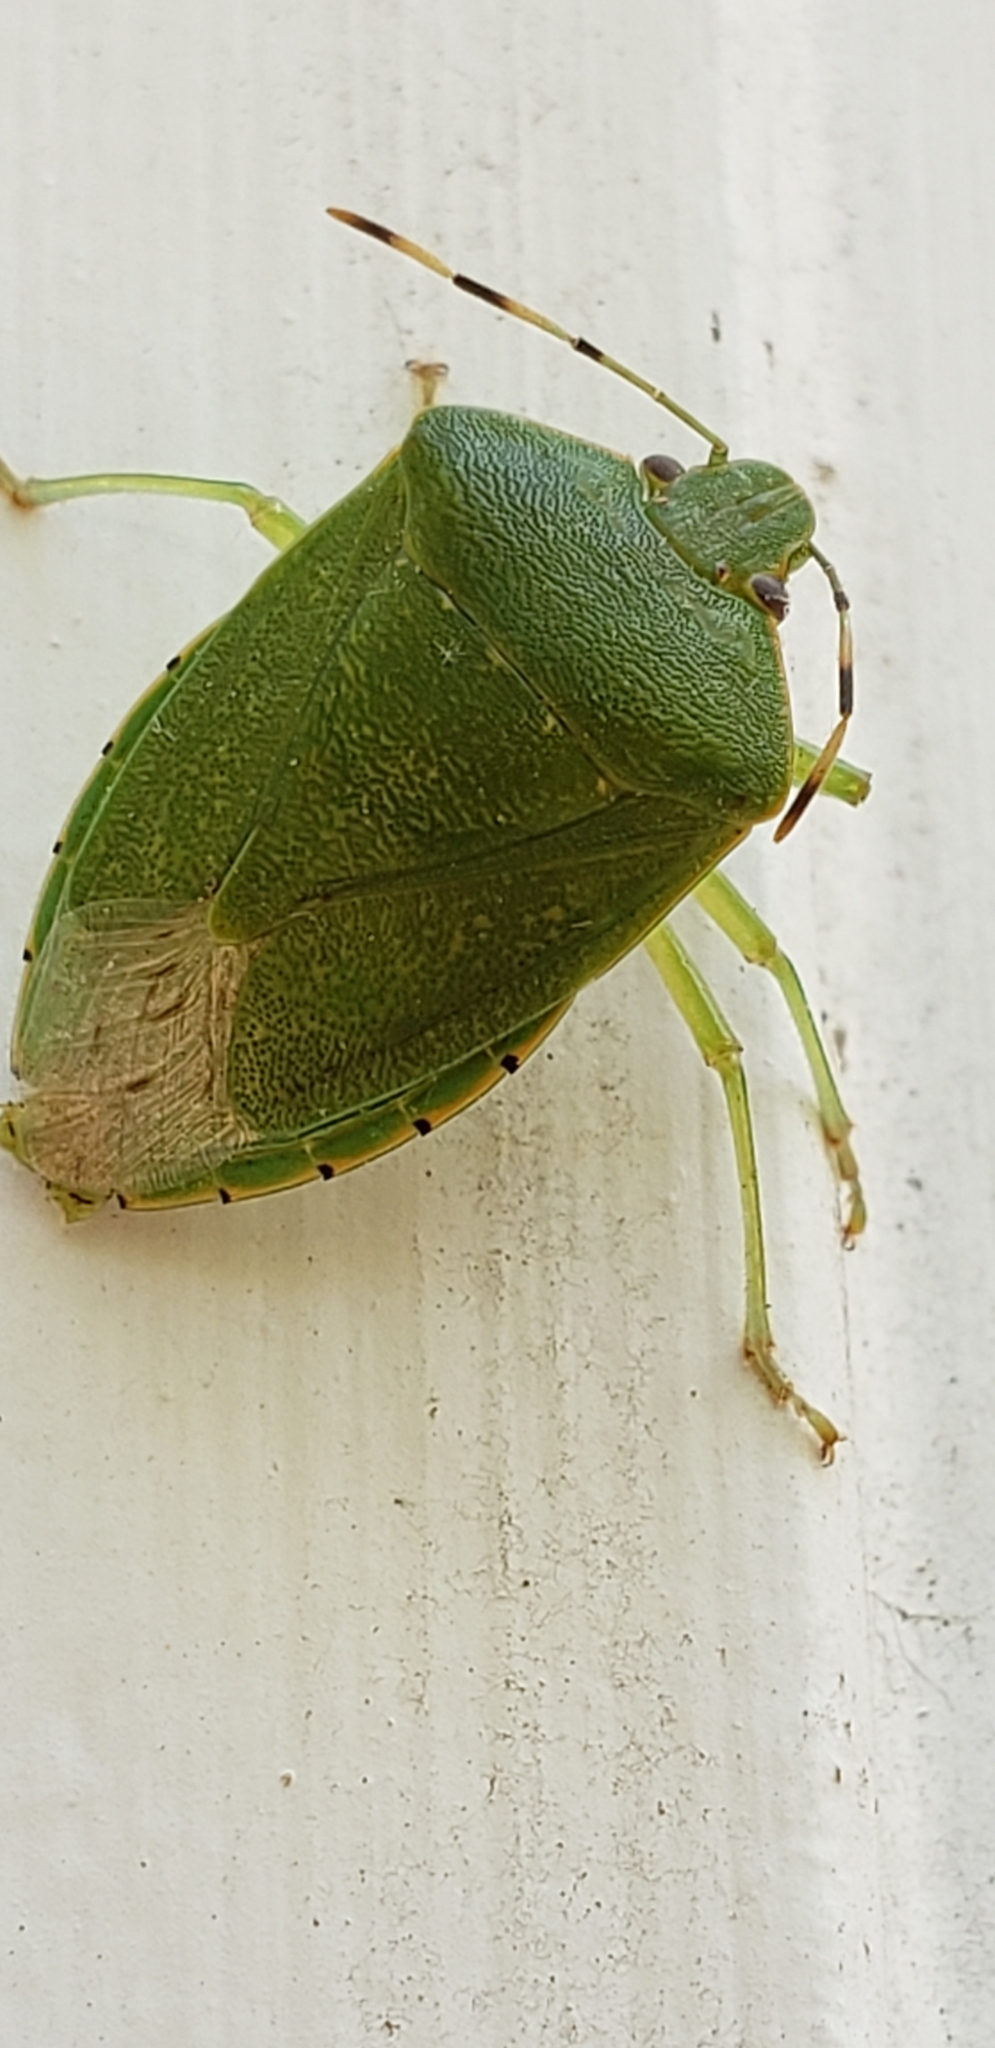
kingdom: Animalia
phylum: Arthropoda
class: Insecta
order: Hemiptera
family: Pentatomidae
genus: Chinavia
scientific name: Chinavia hilaris
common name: Green stink bug
